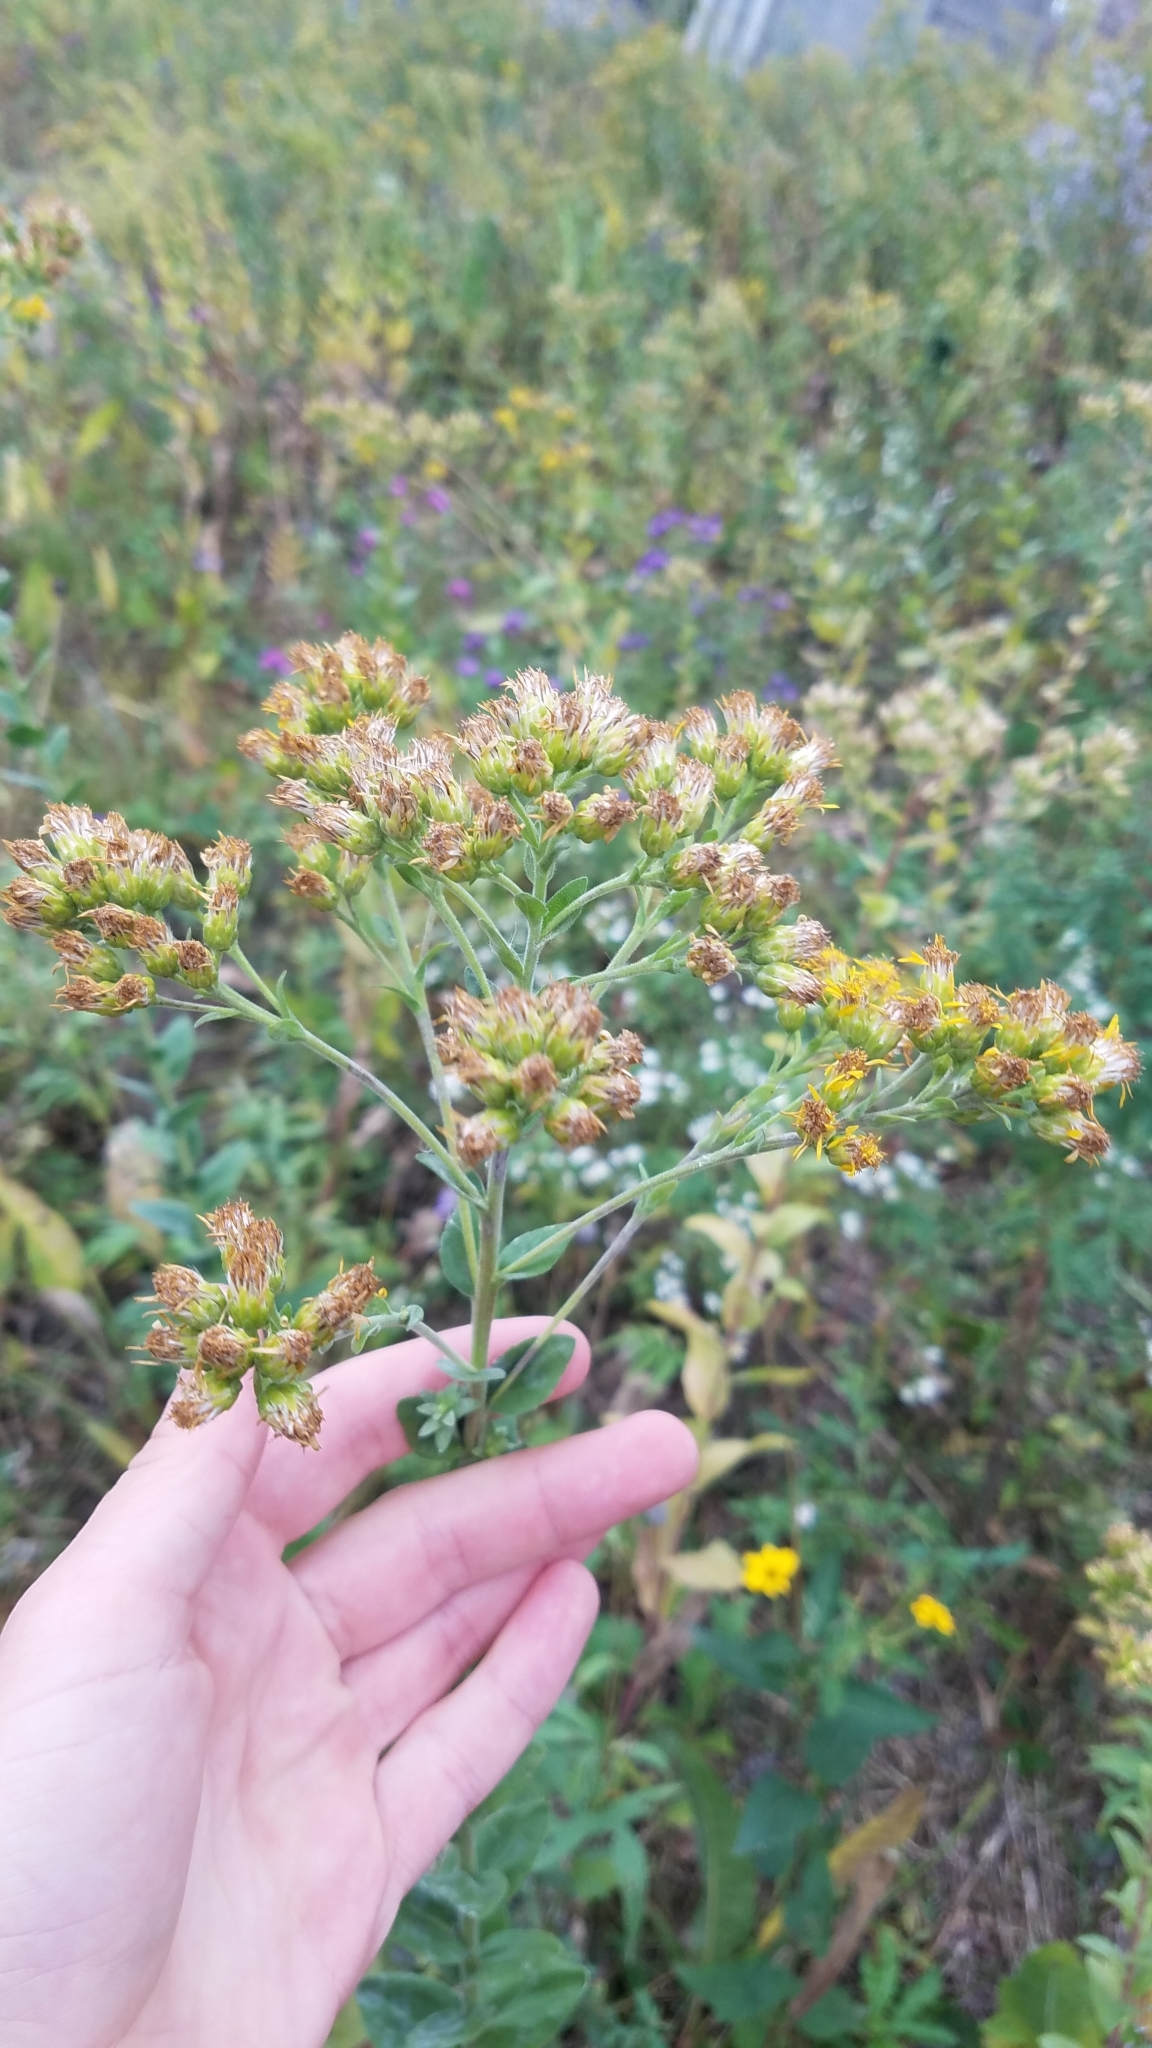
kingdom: Plantae
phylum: Tracheophyta
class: Magnoliopsida
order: Asterales
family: Asteraceae
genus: Solidago
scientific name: Solidago rigida
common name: Rigid goldenrod
